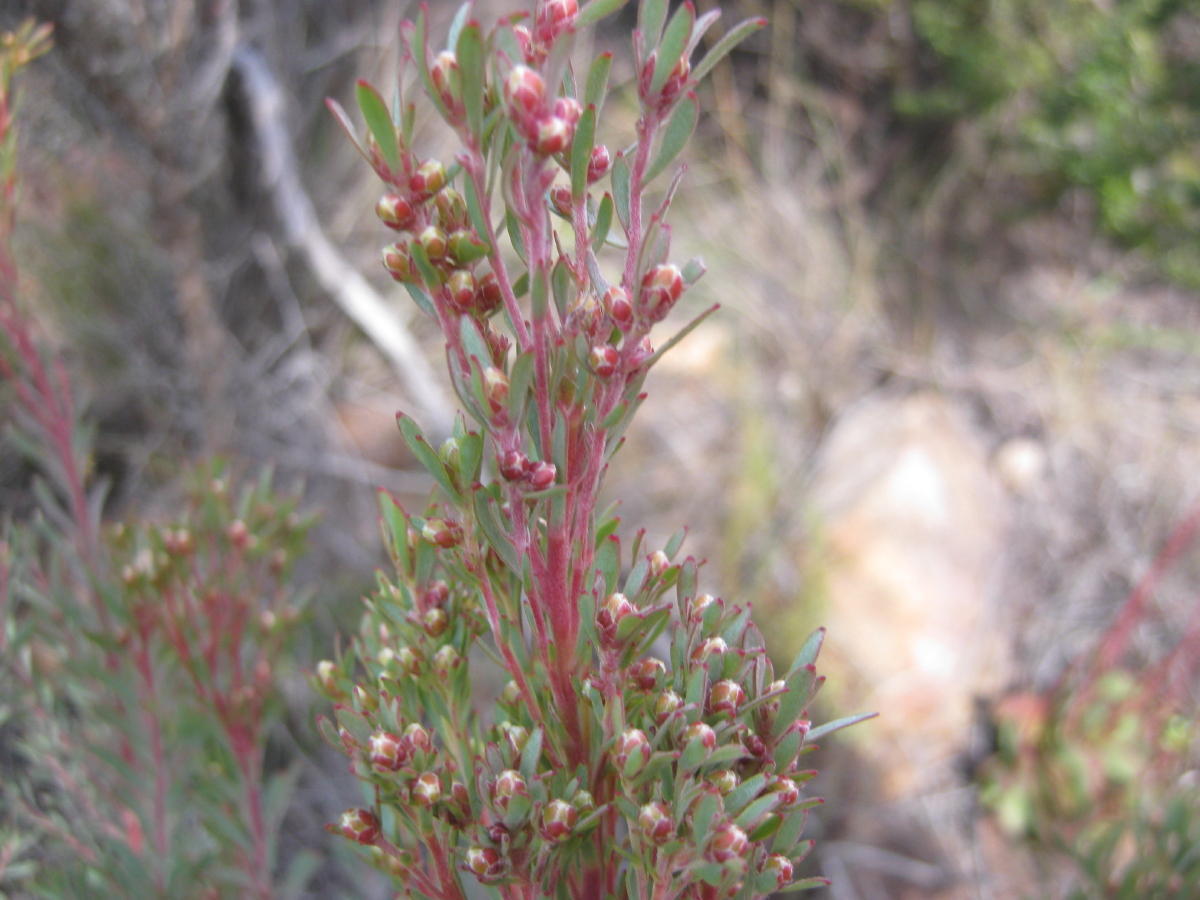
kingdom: Plantae
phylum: Tracheophyta
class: Magnoliopsida
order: Proteales
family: Proteaceae
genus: Leucadendron
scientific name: Leucadendron rubrum
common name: Spinning top
